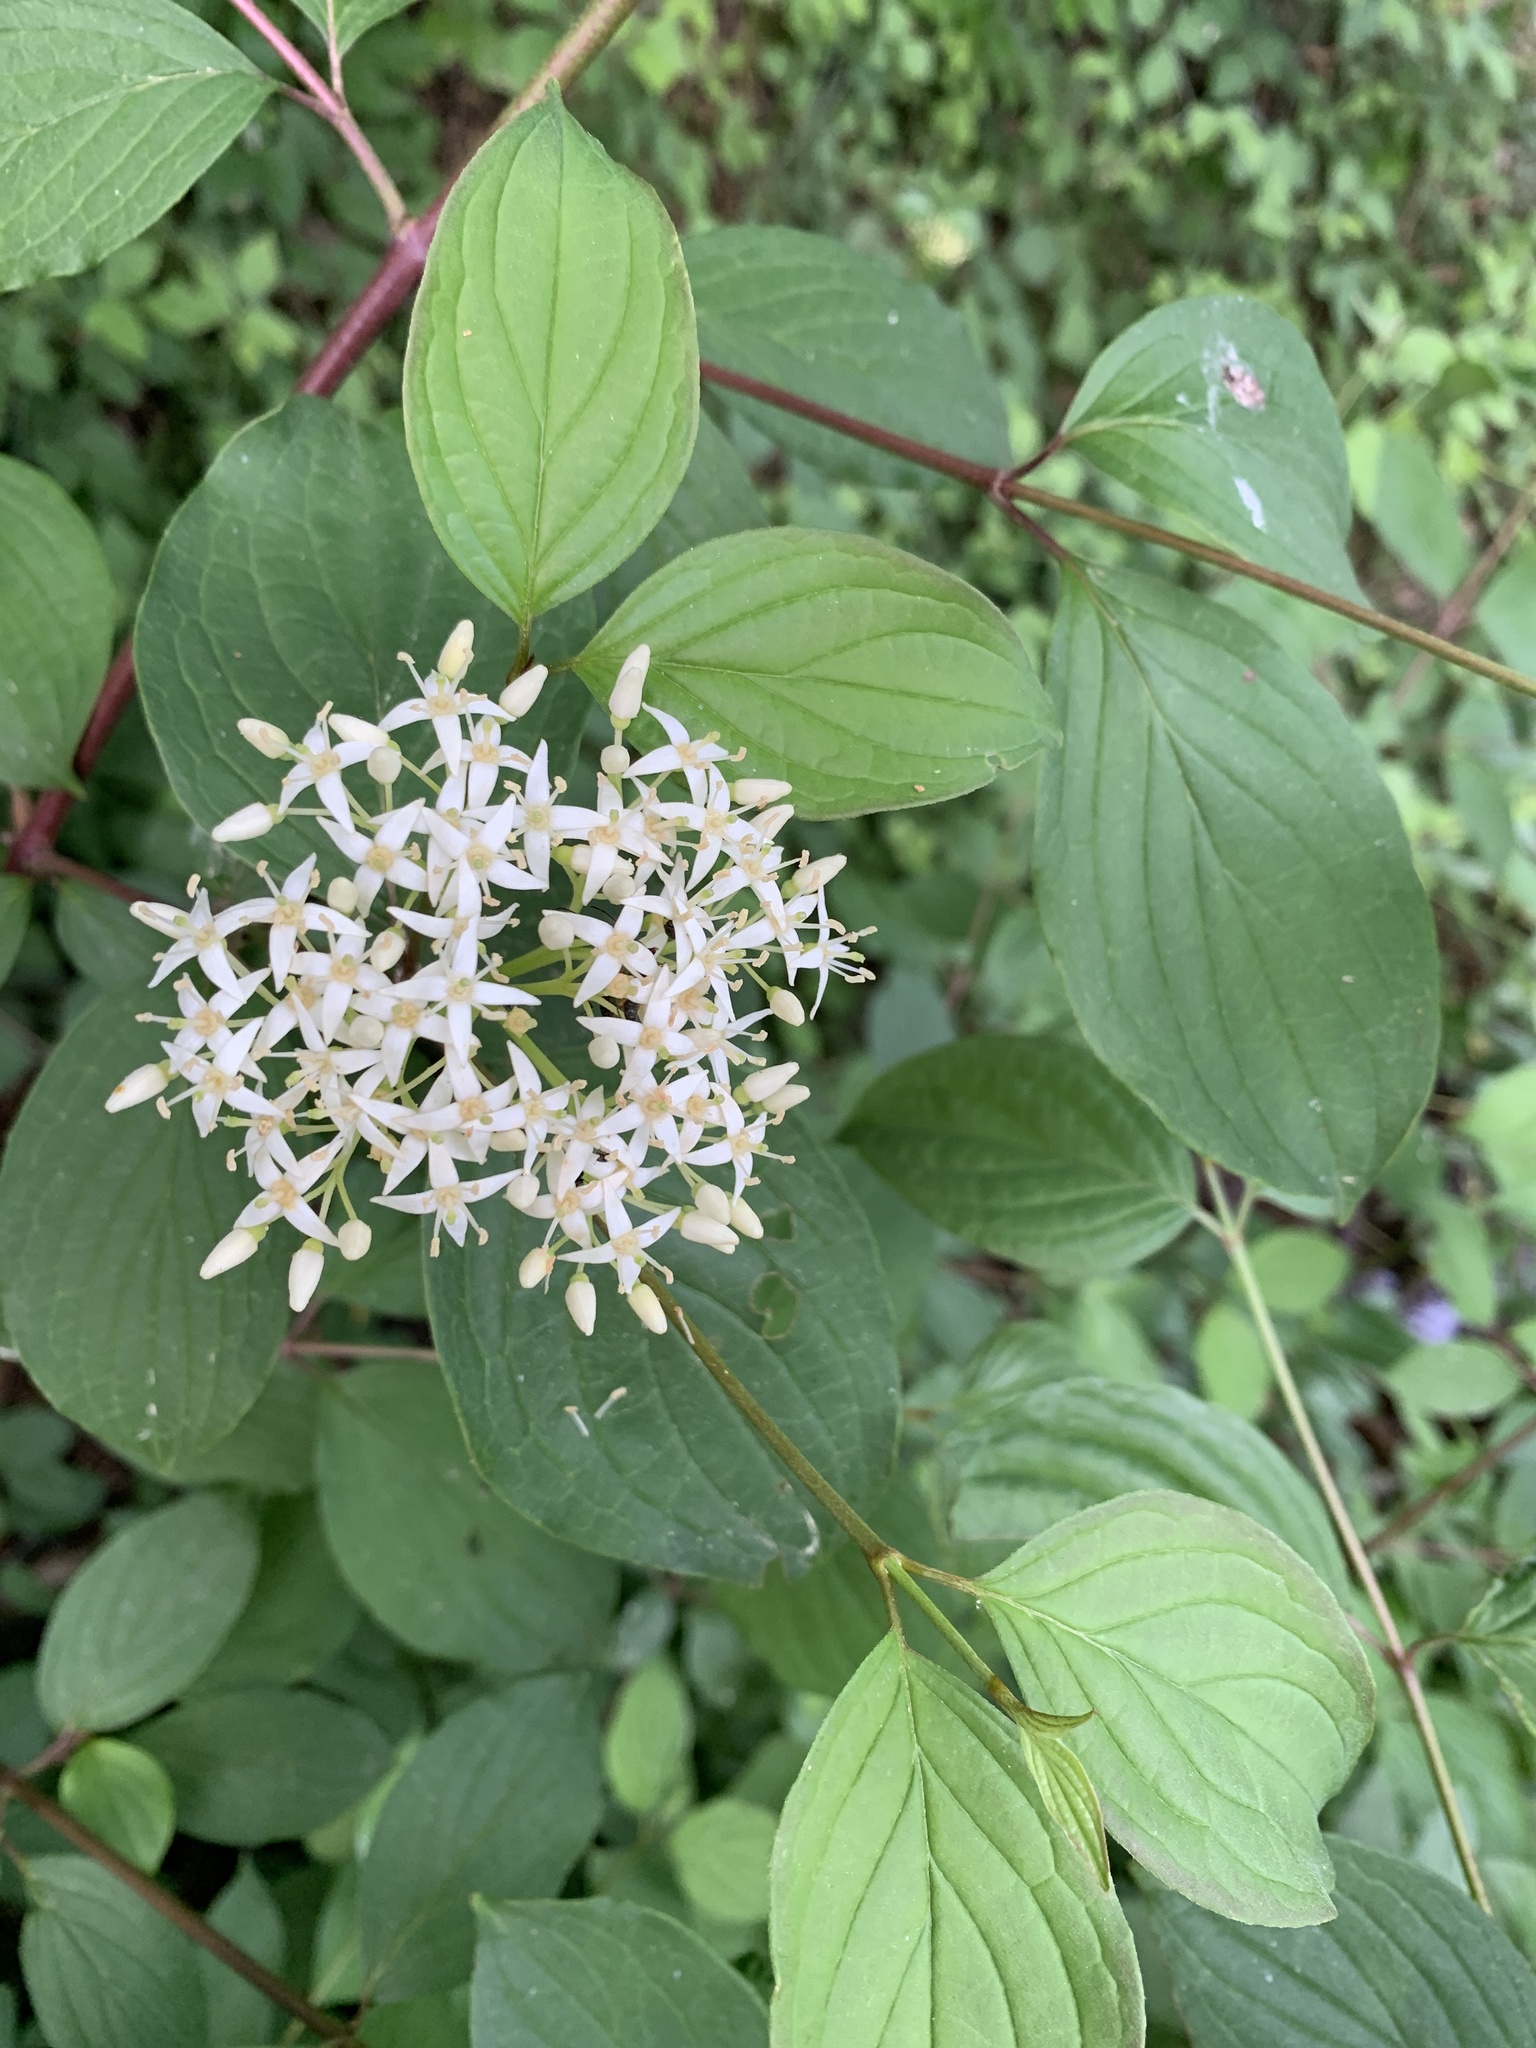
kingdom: Plantae
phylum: Tracheophyta
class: Magnoliopsida
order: Cornales
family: Cornaceae
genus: Cornus
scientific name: Cornus sanguinea
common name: Dogwood
